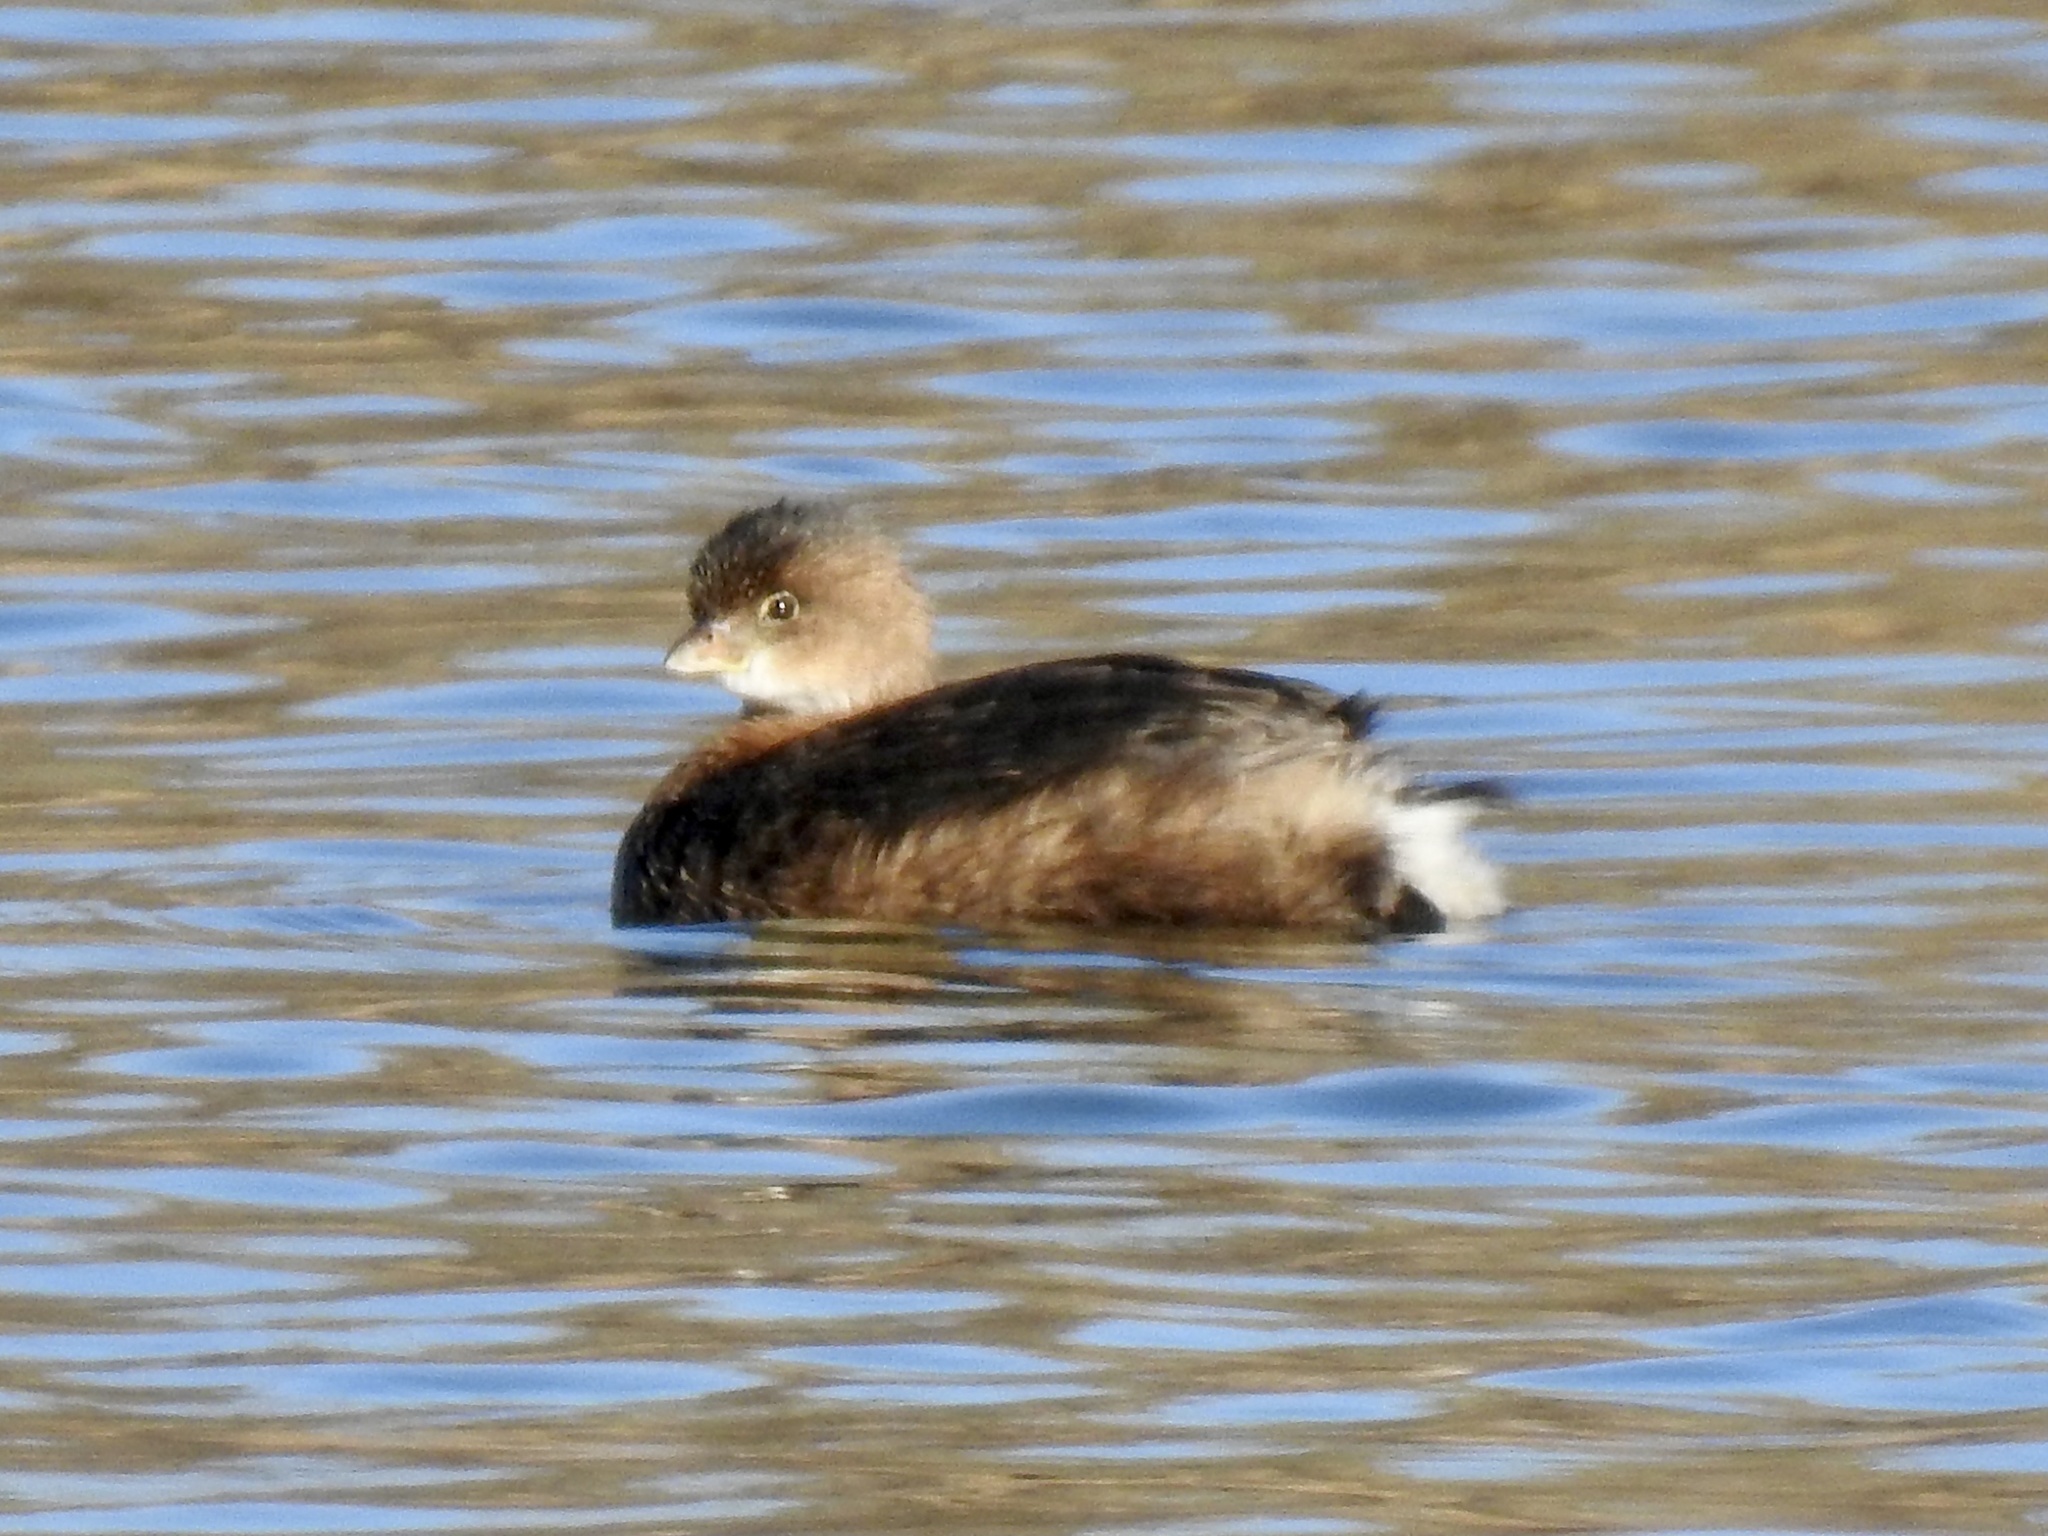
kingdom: Animalia
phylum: Chordata
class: Aves
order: Podicipediformes
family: Podicipedidae
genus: Podilymbus
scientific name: Podilymbus podiceps
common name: Pied-billed grebe
